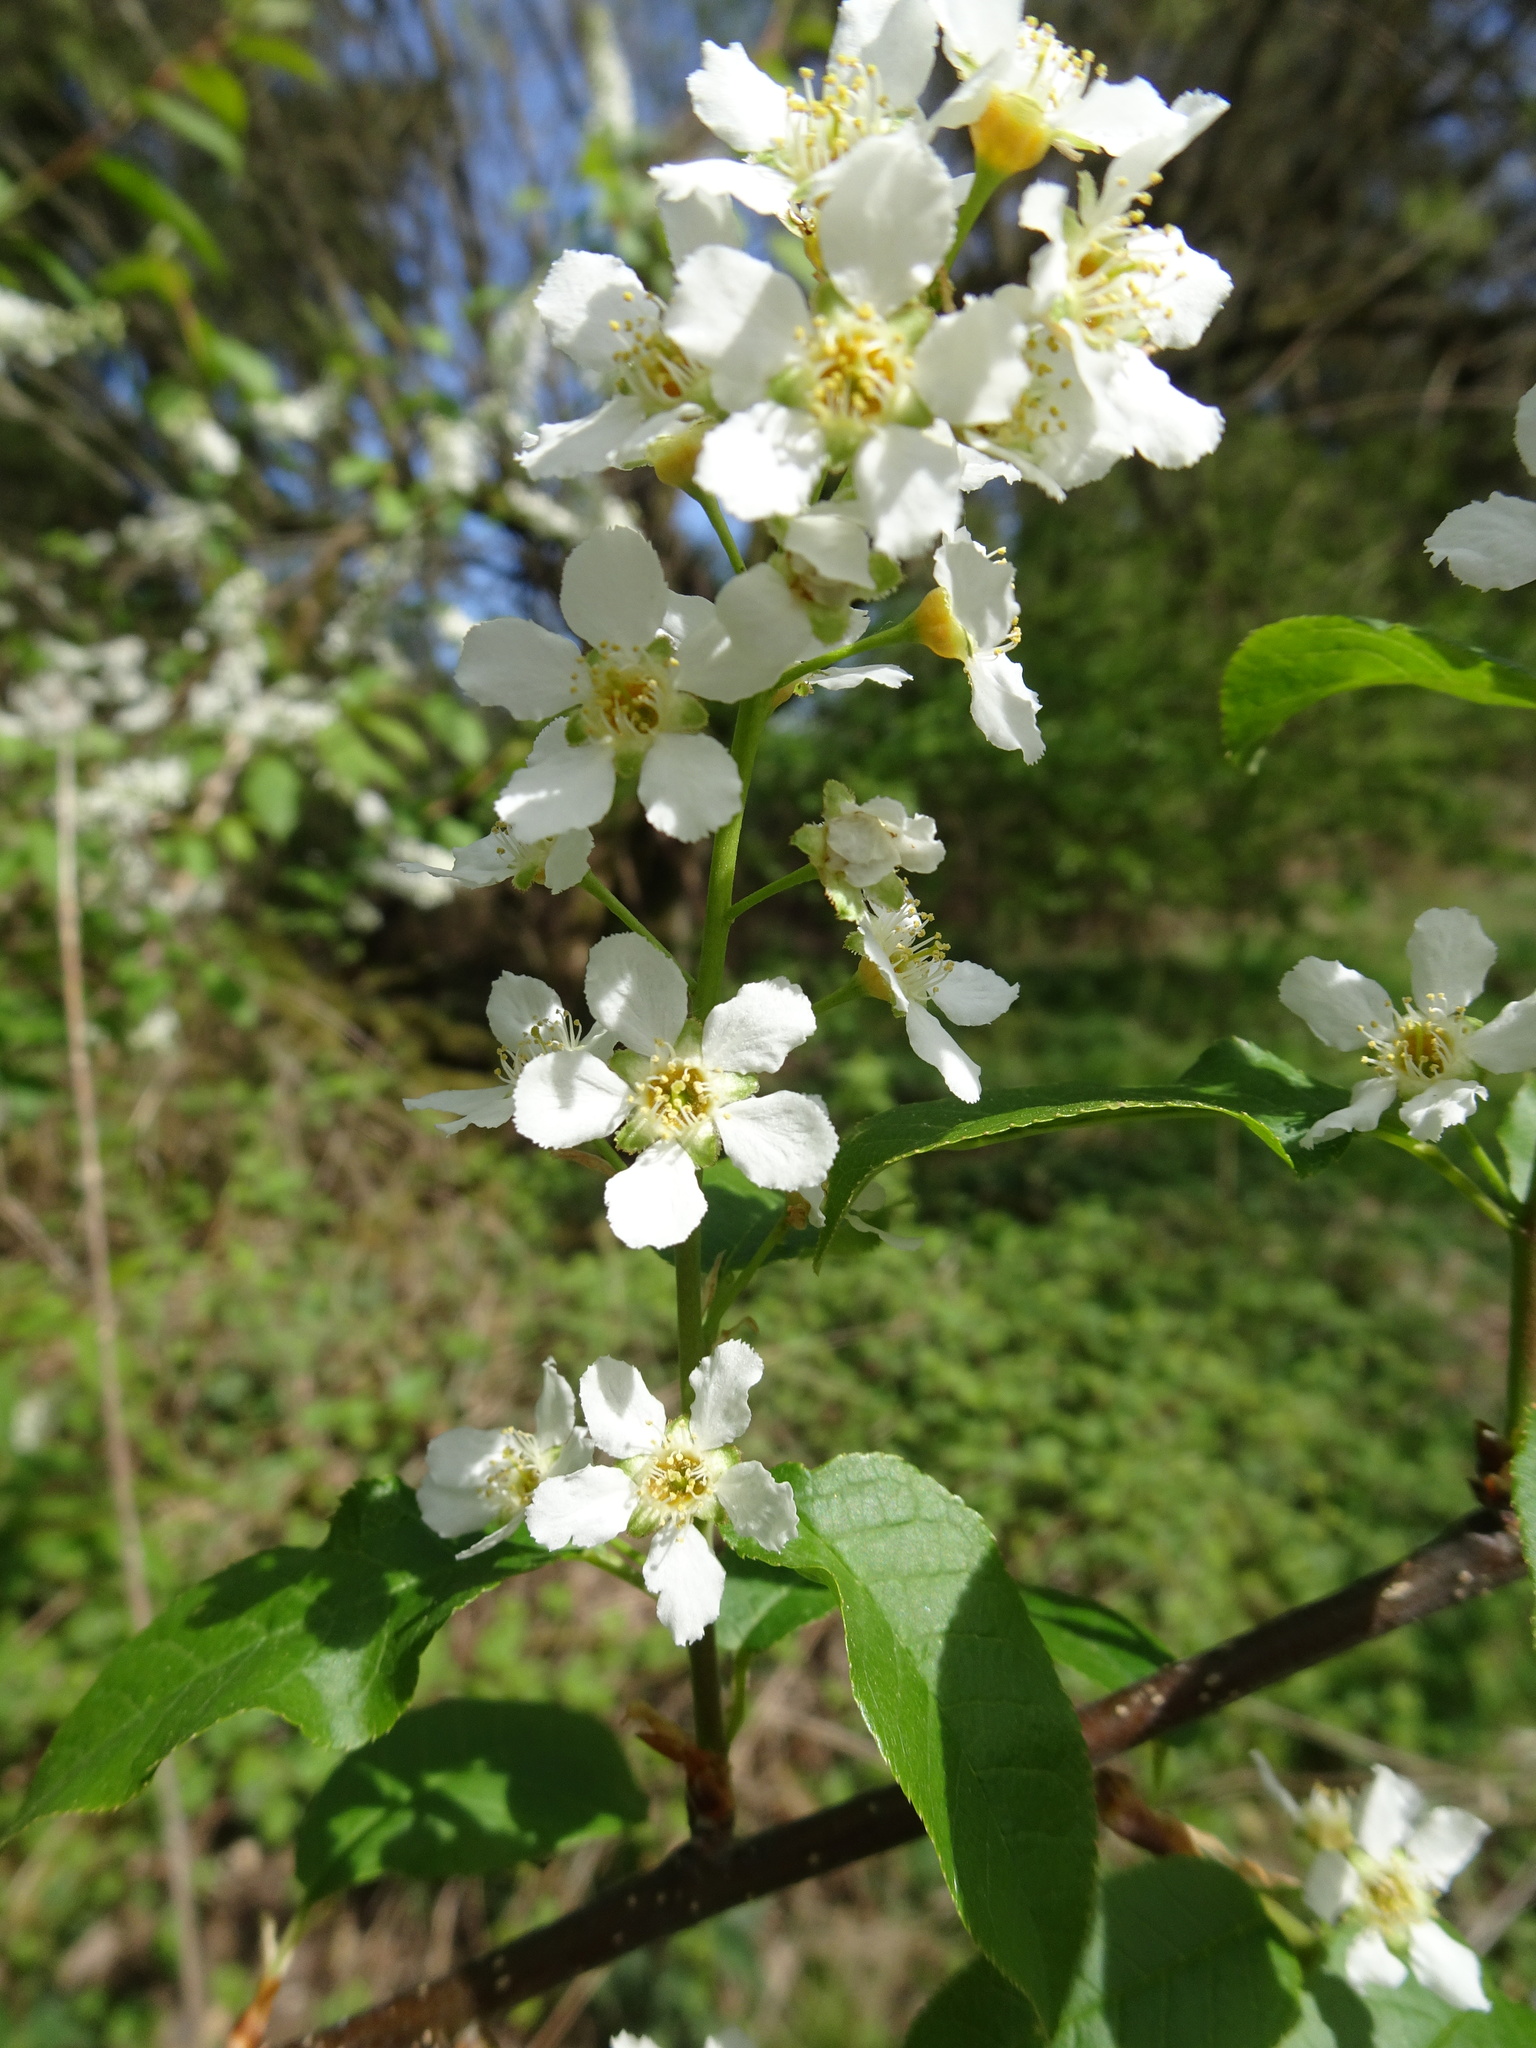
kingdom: Plantae
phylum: Tracheophyta
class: Magnoliopsida
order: Rosales
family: Rosaceae
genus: Prunus
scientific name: Prunus padus
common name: Bird cherry
